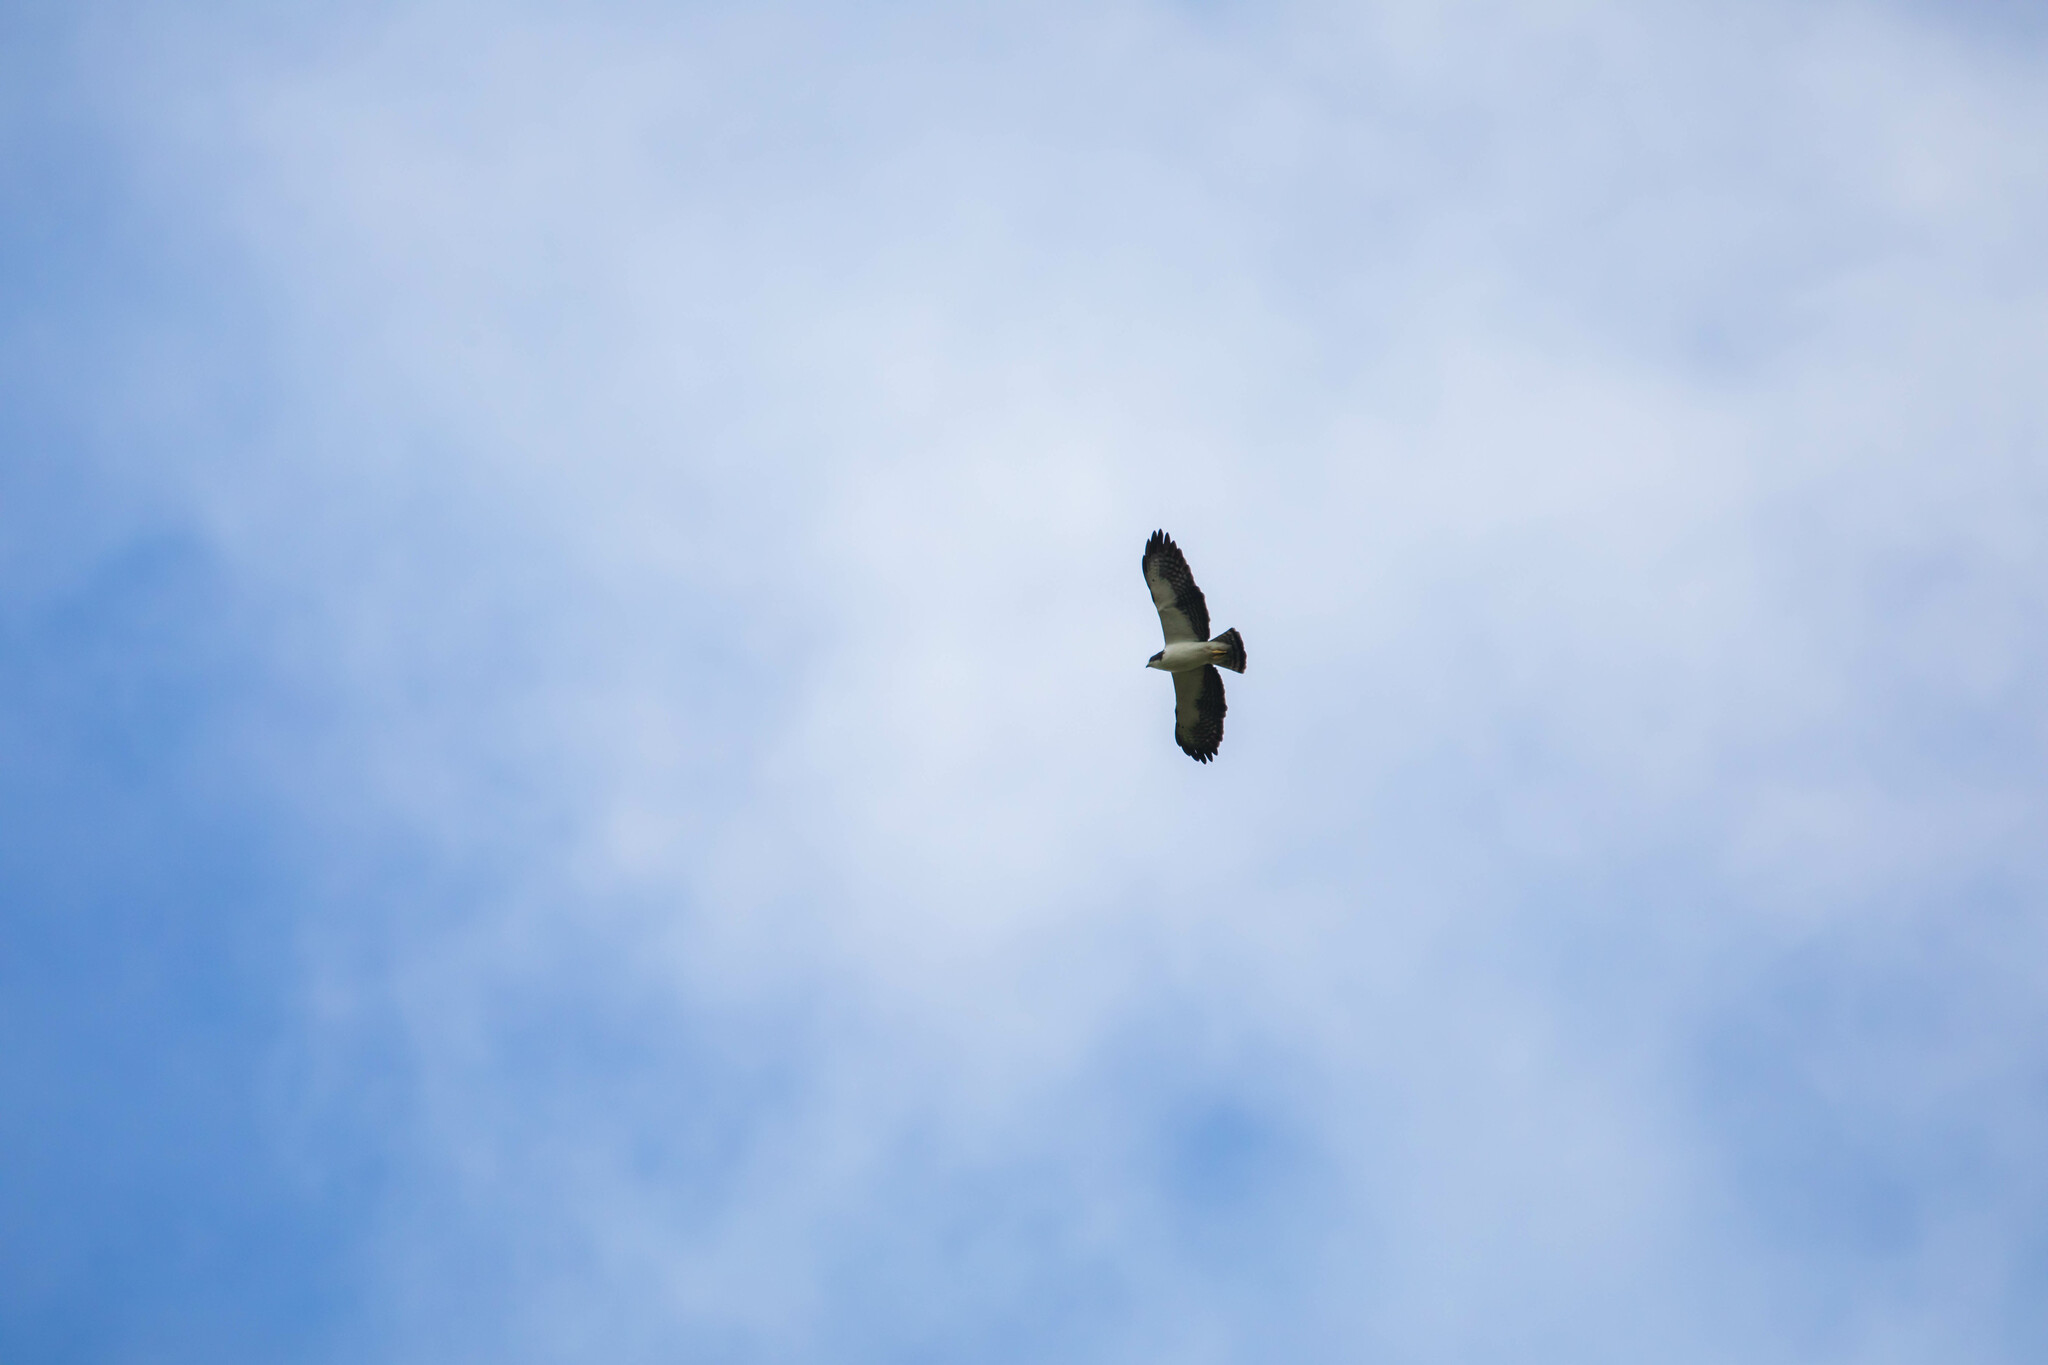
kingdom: Animalia
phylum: Chordata
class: Aves
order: Accipitriformes
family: Accipitridae
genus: Buteo
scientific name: Buteo brachyurus
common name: Short-tailed hawk
